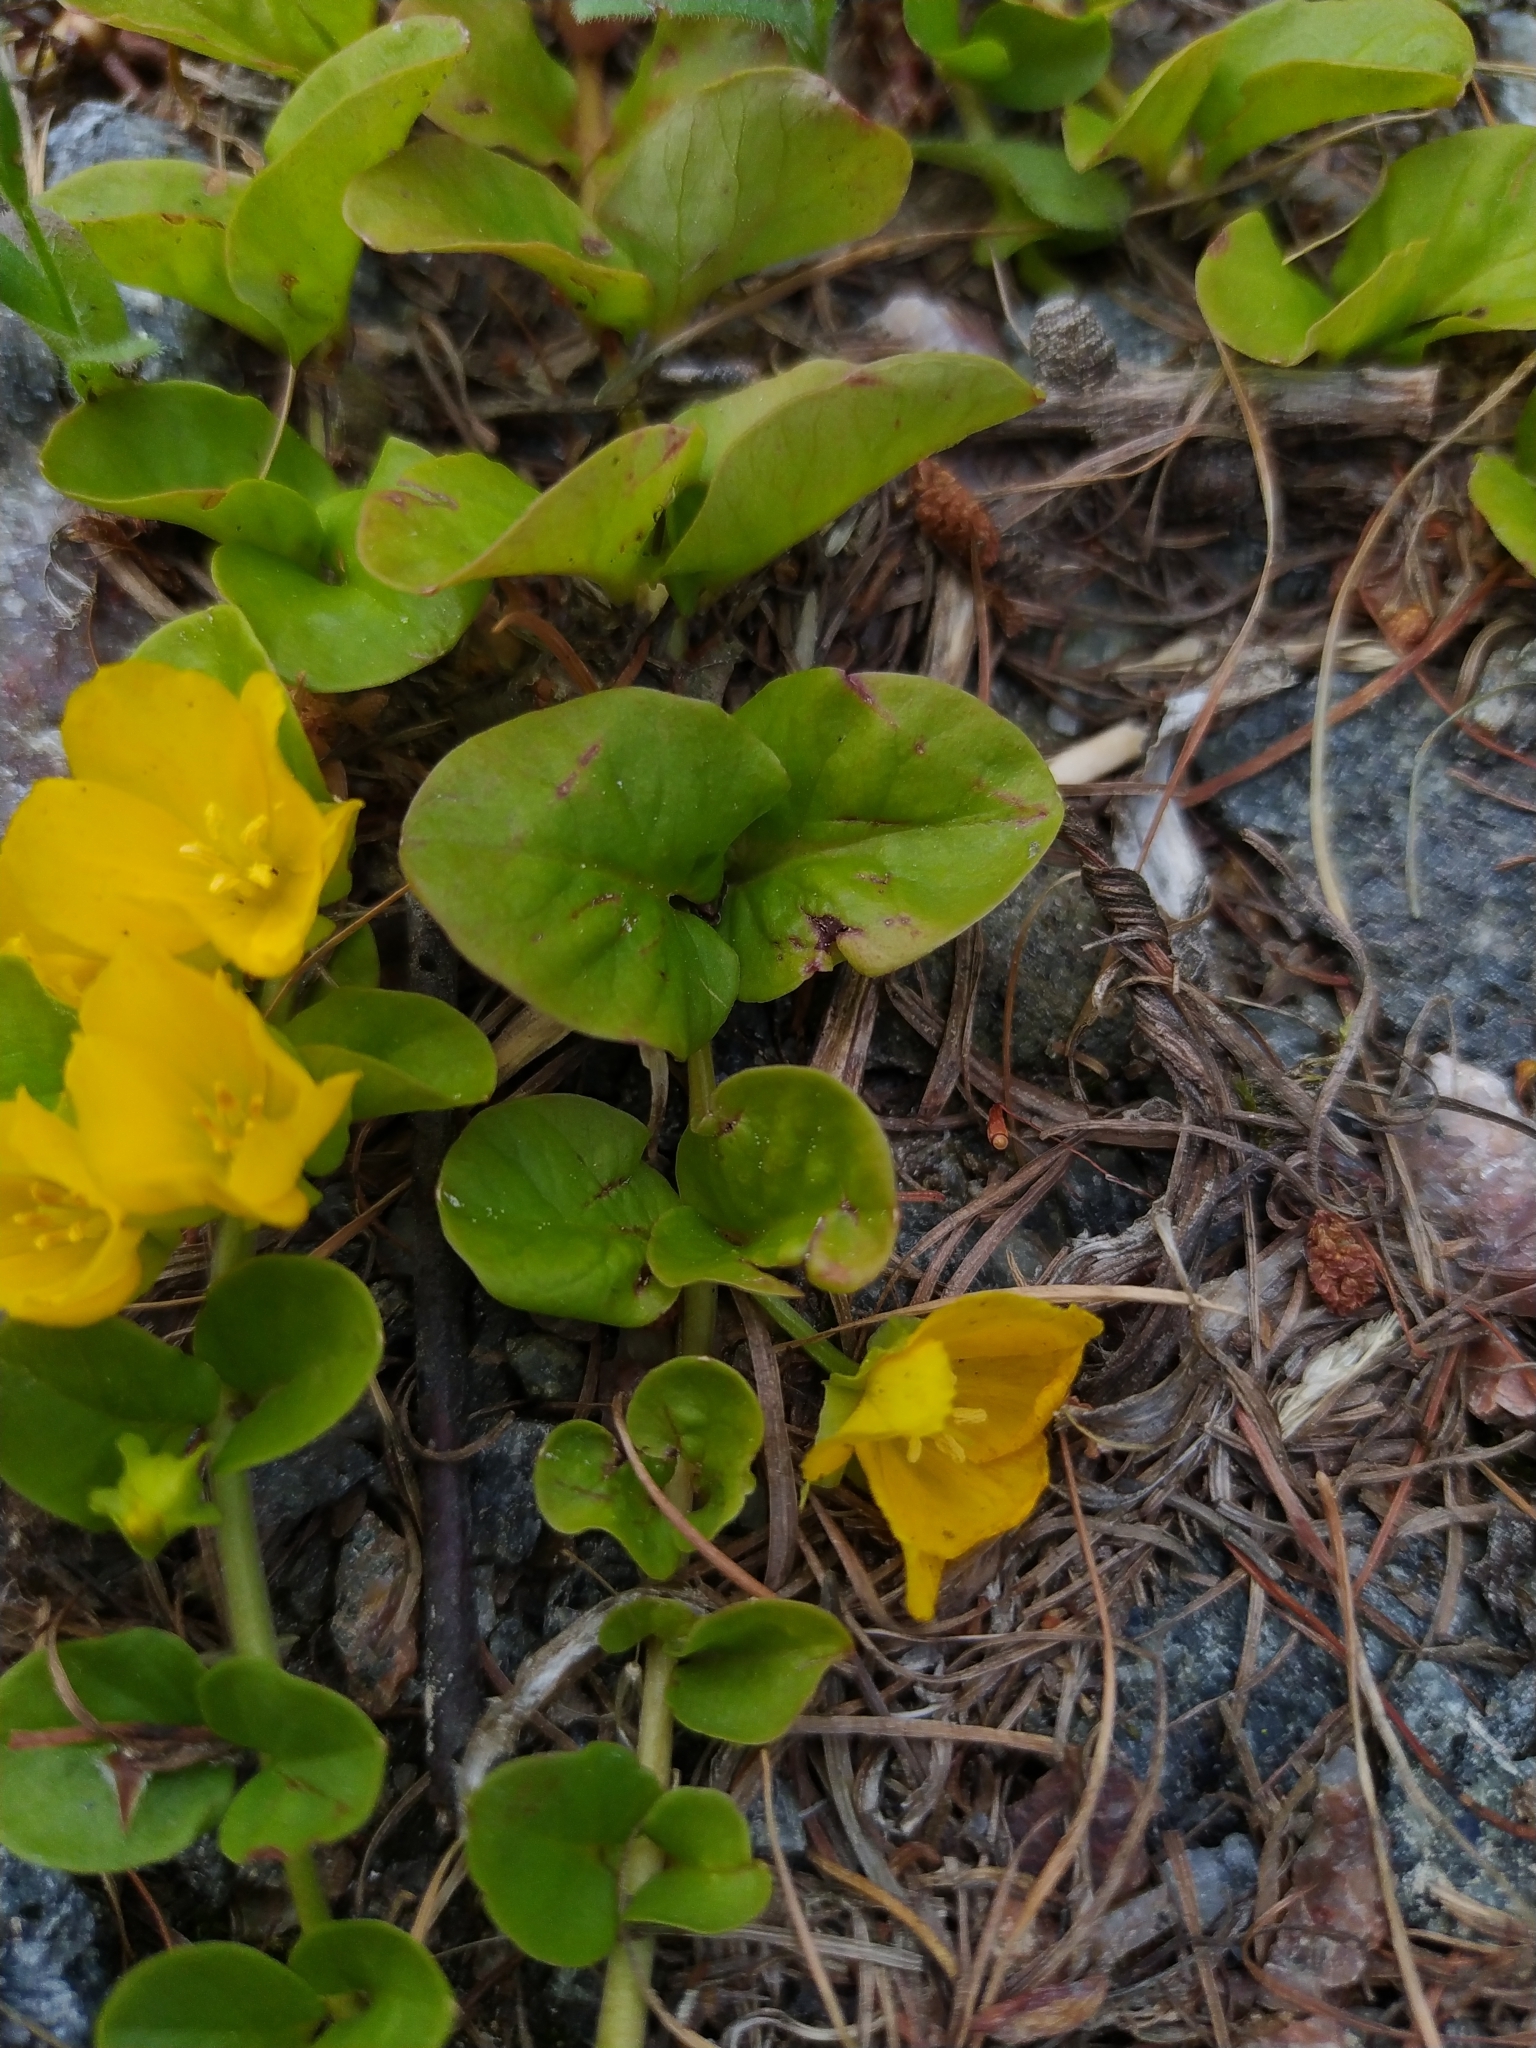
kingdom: Plantae
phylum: Tracheophyta
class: Magnoliopsida
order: Ericales
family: Primulaceae
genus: Lysimachia
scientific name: Lysimachia nummularia
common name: Moneywort
